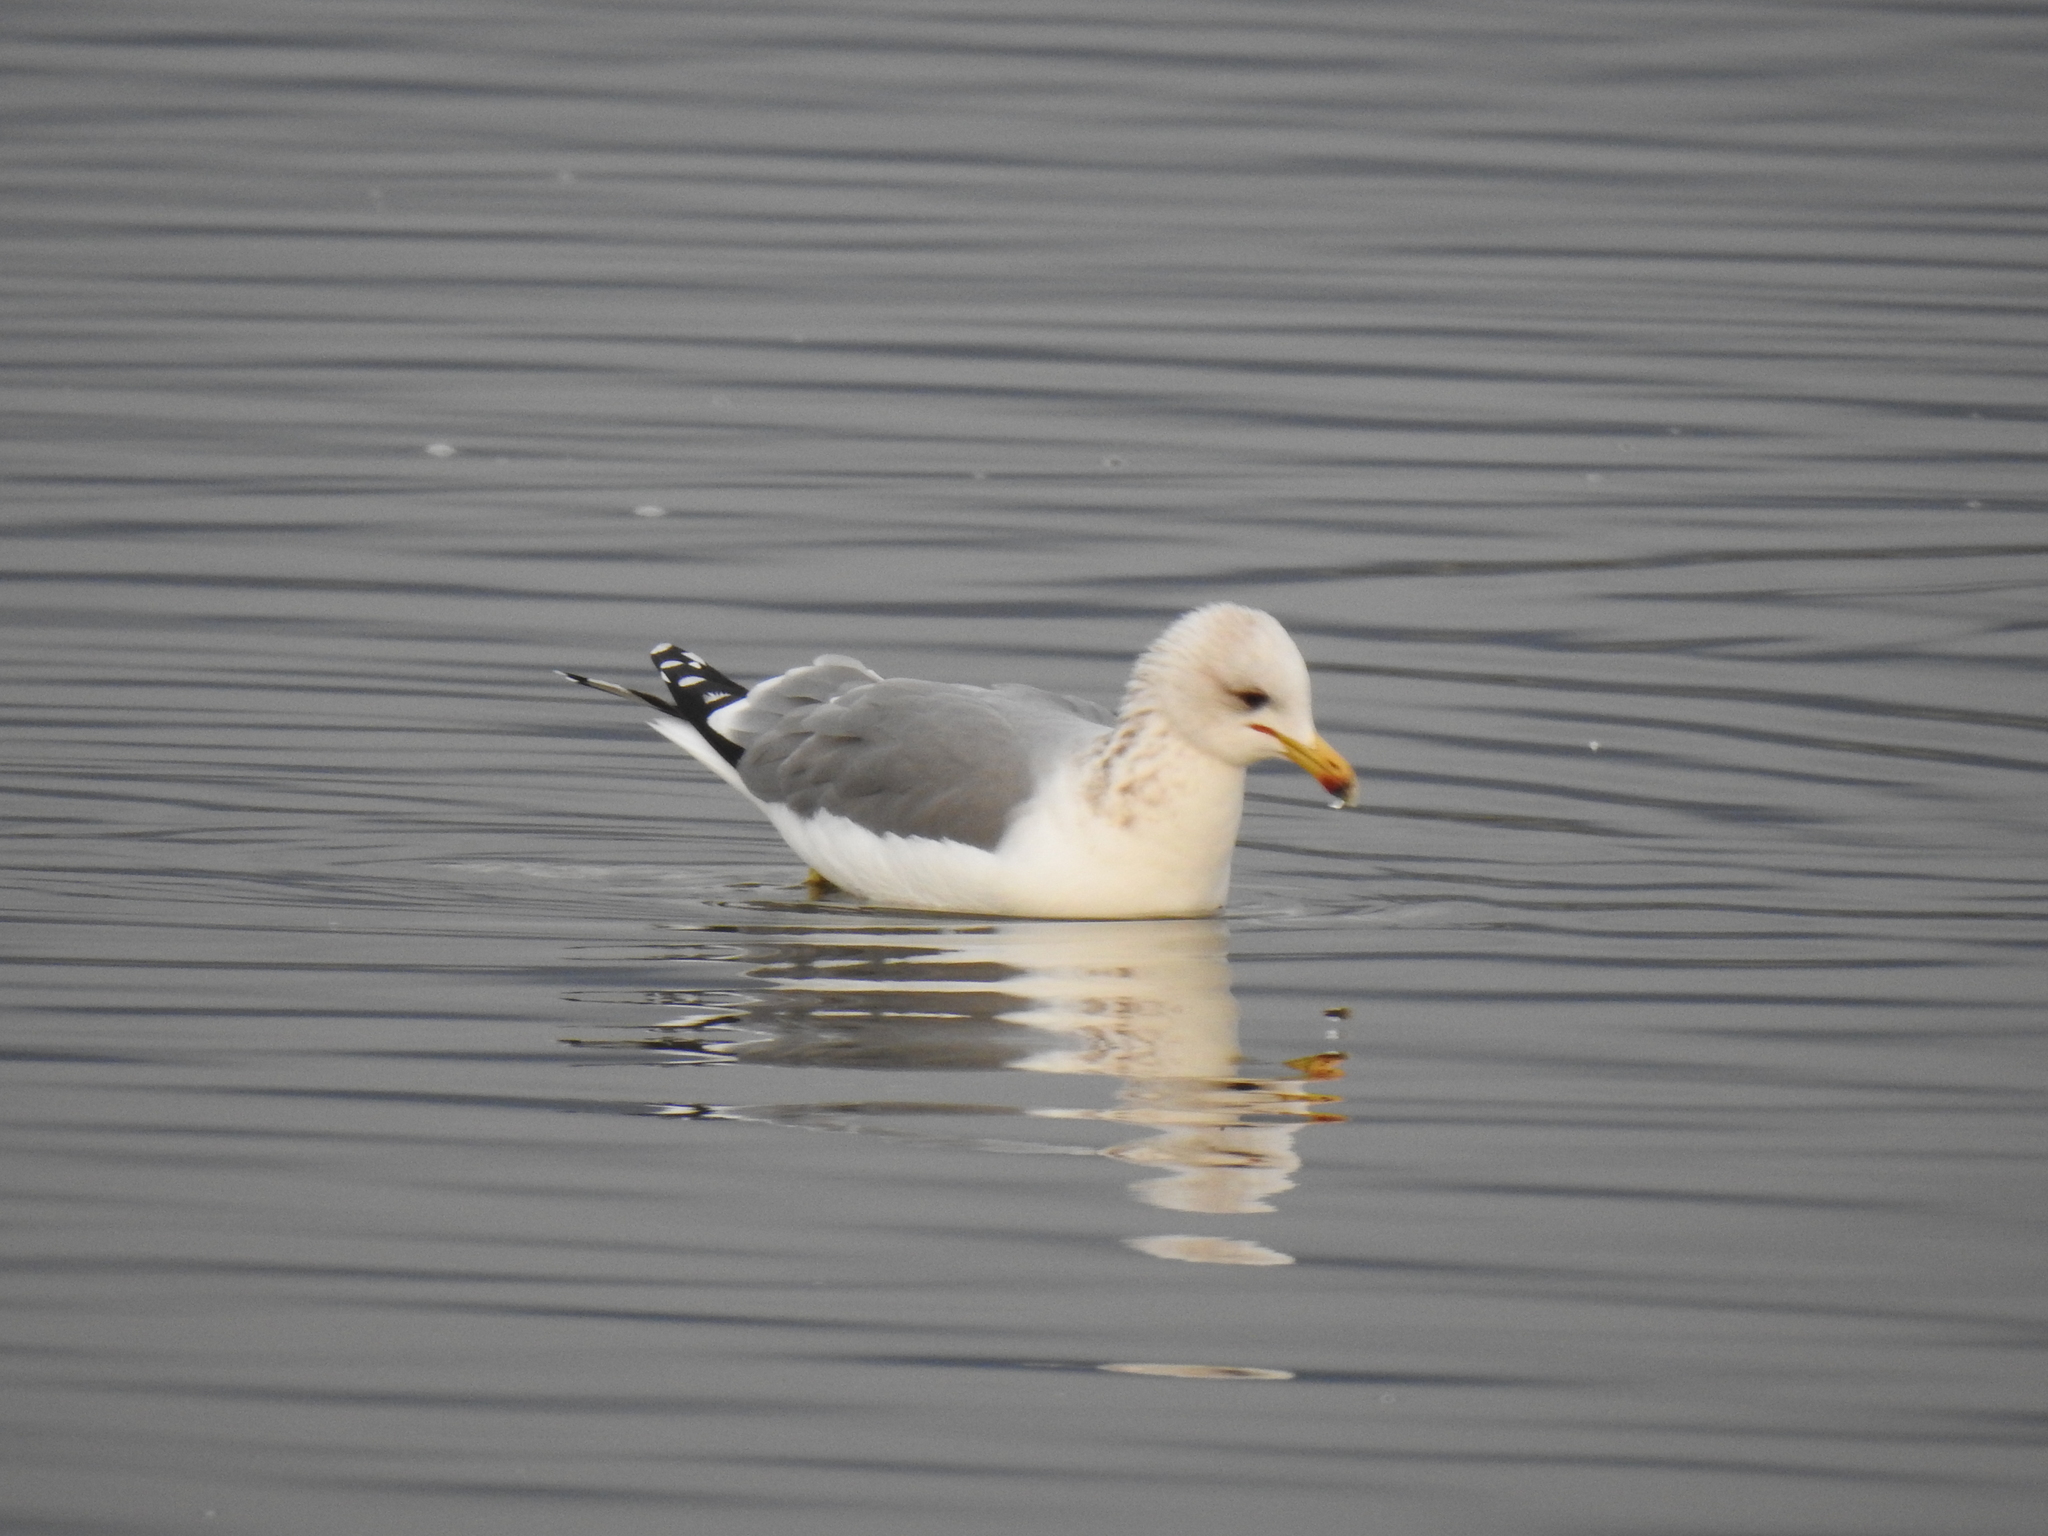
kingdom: Animalia
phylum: Chordata
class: Aves
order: Charadriiformes
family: Laridae
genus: Larus
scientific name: Larus californicus
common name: California gull
